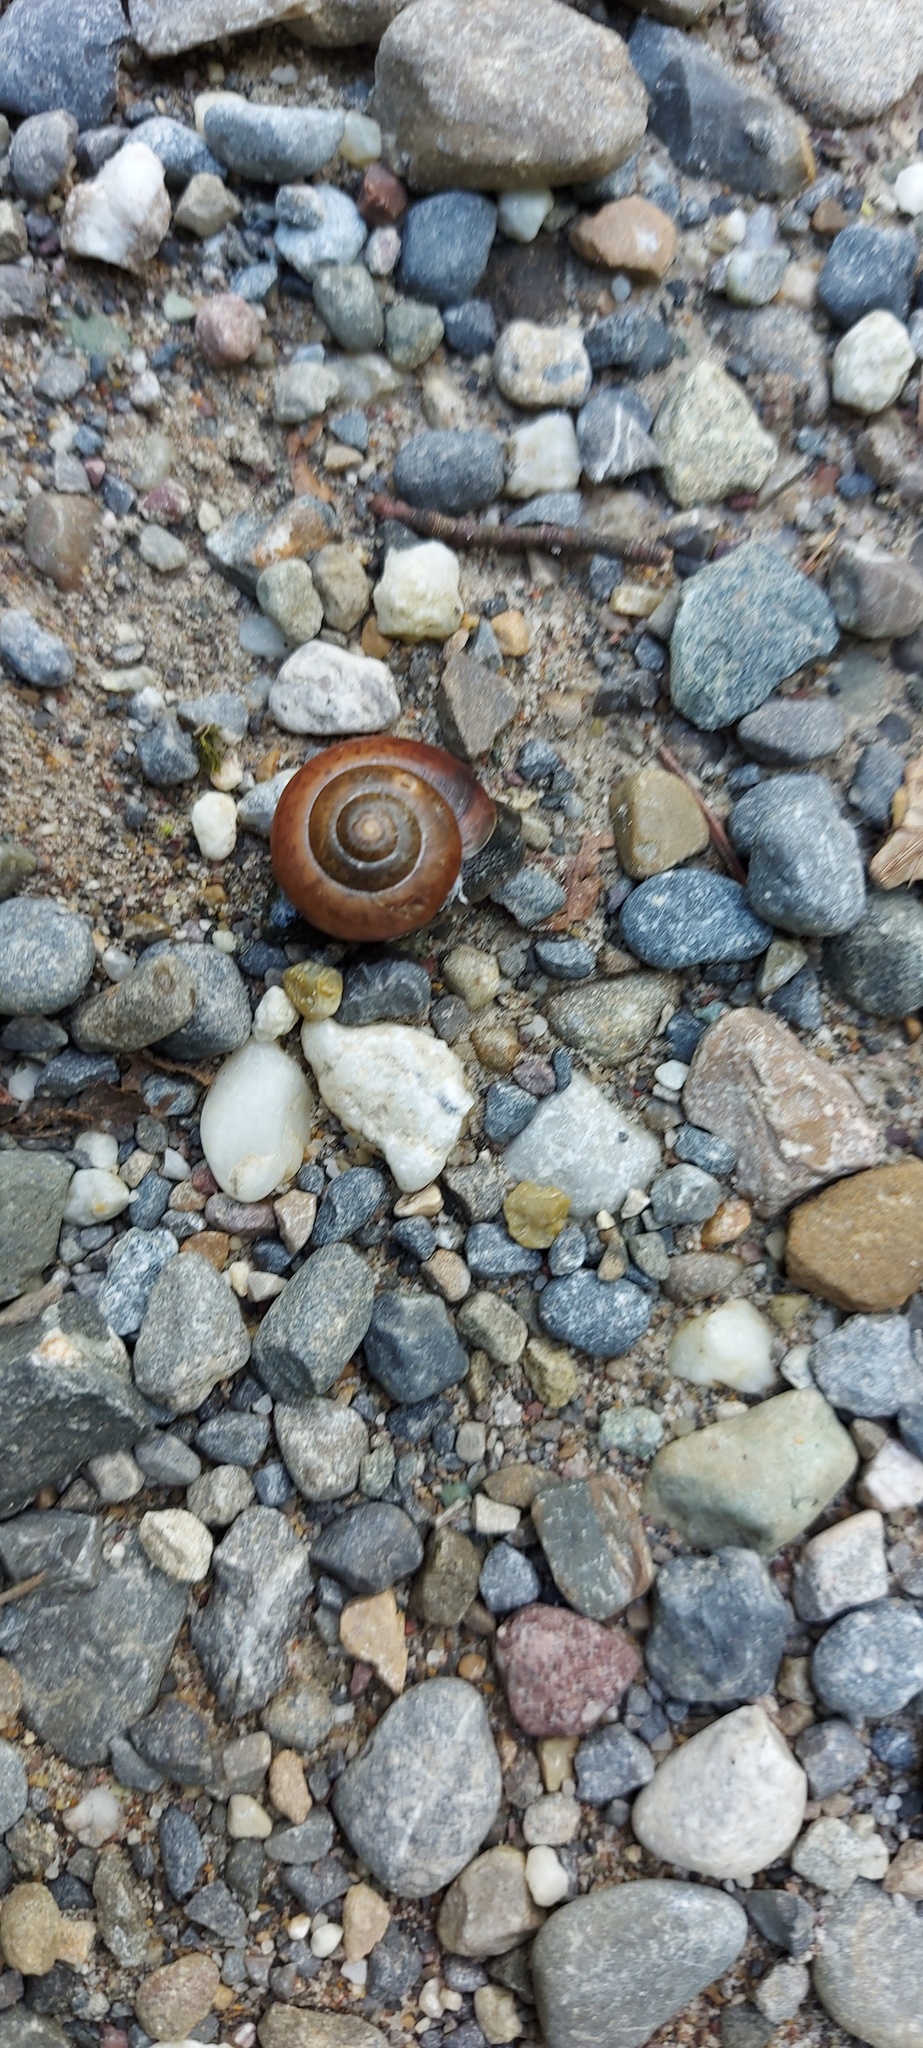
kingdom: Animalia
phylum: Mollusca
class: Gastropoda
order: Stylommatophora
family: Camaenidae
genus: Fruticicola
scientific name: Fruticicola fruticum
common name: Bush snail
